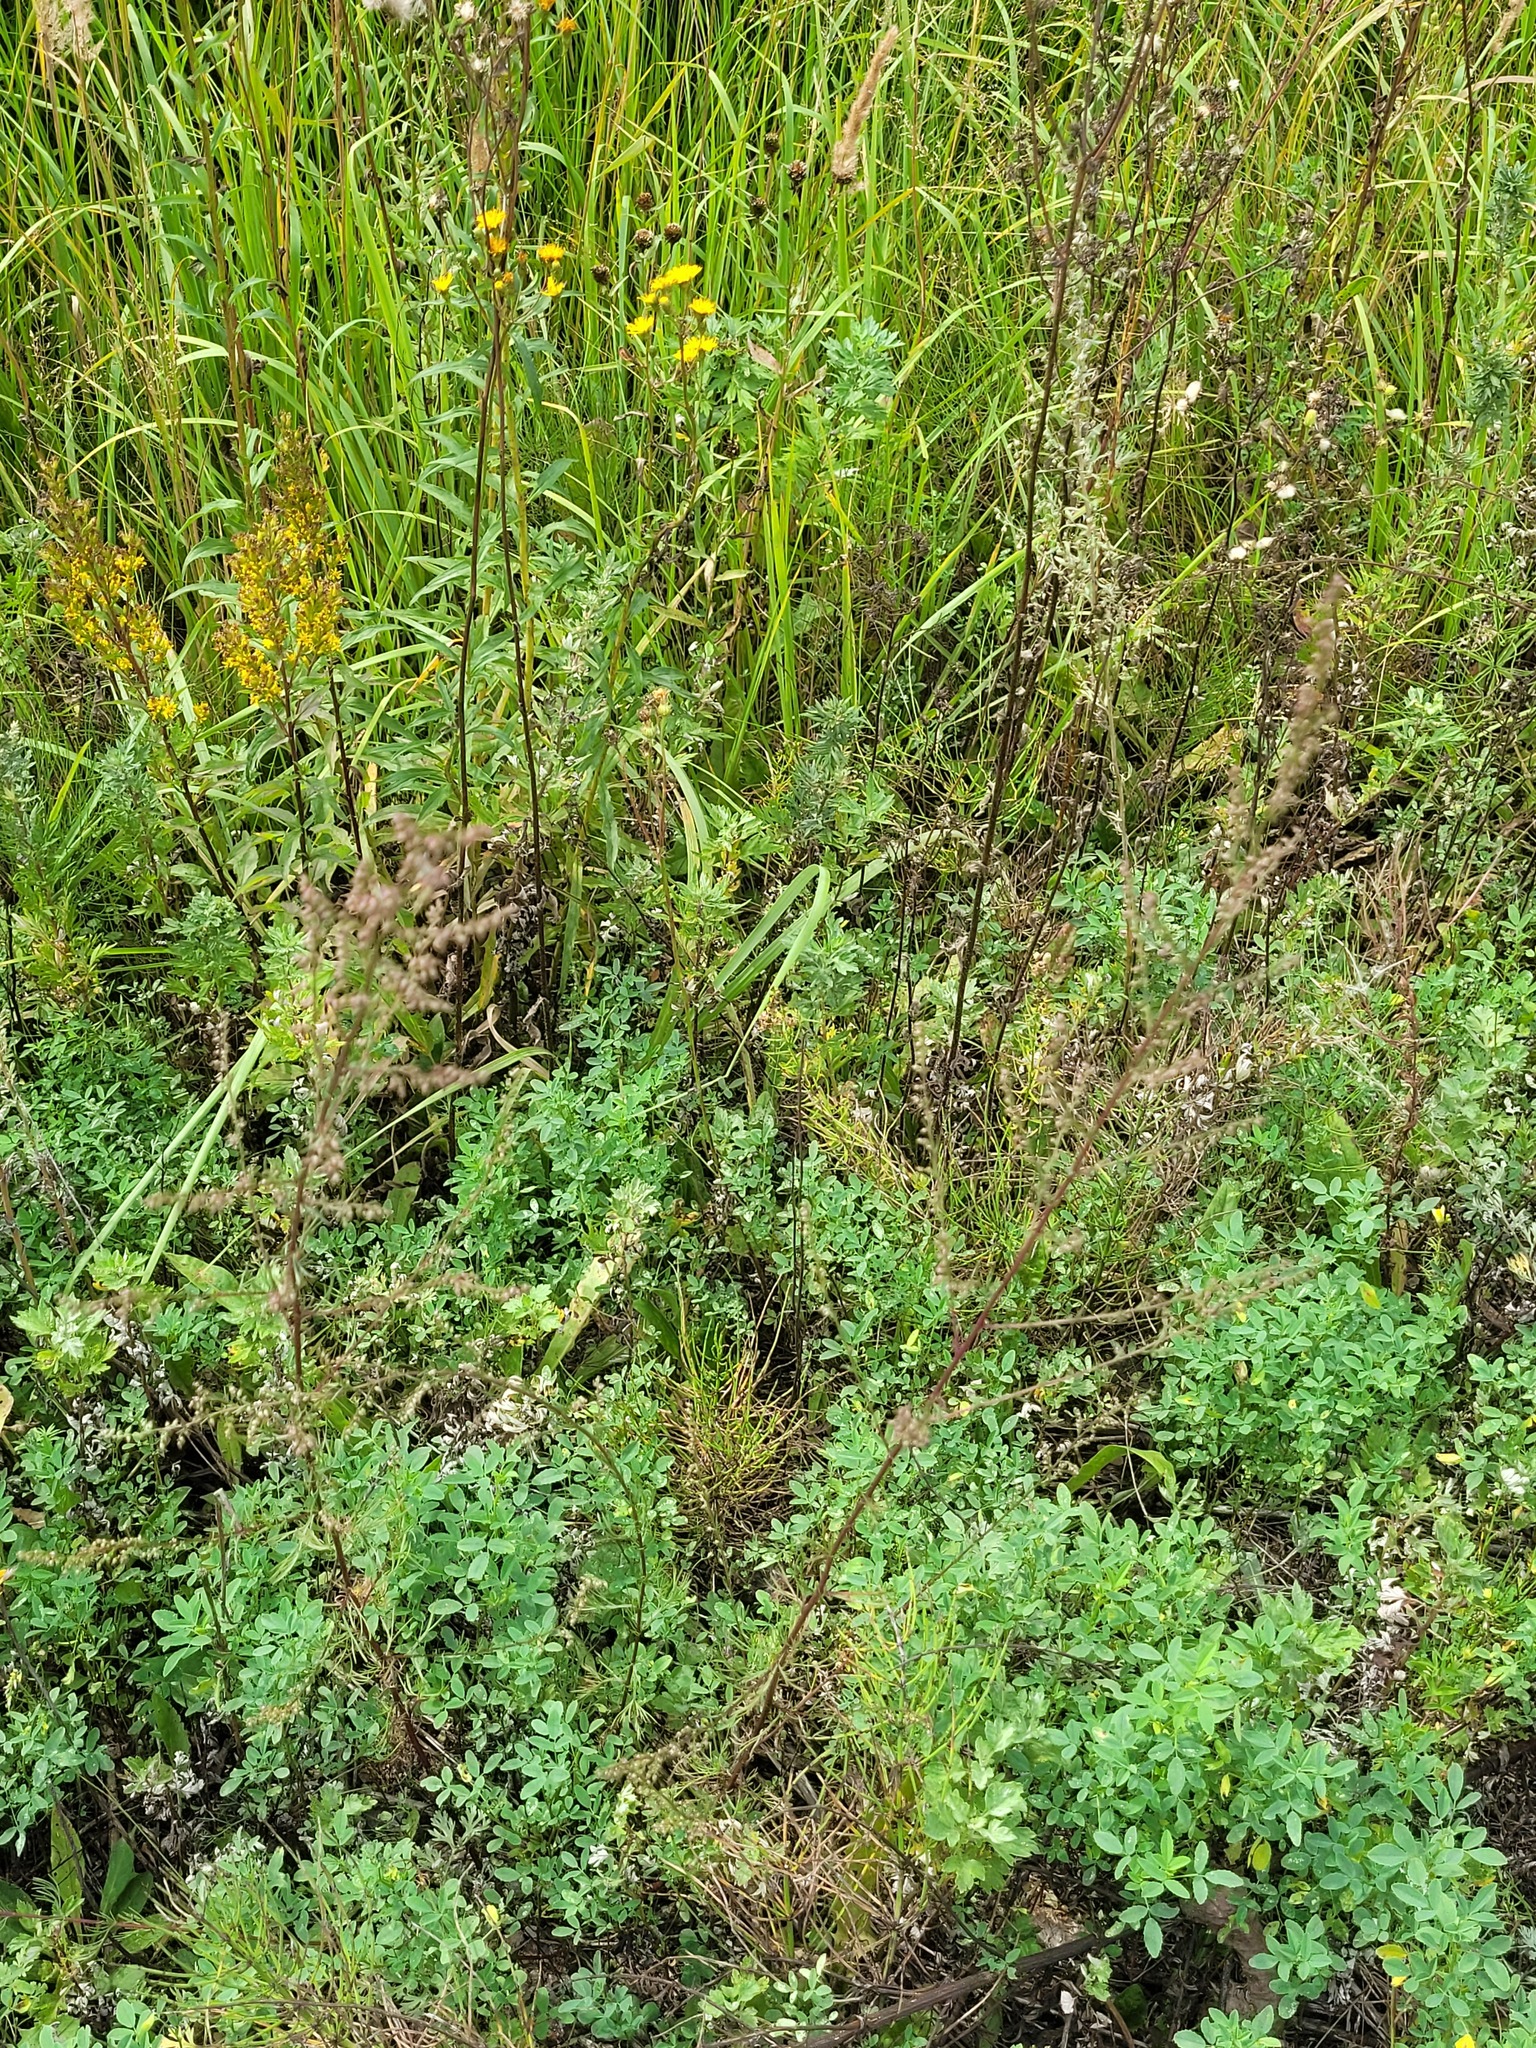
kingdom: Plantae
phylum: Tracheophyta
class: Magnoliopsida
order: Asterales
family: Asteraceae
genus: Artemisia
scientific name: Artemisia campestris
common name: Field wormwood
